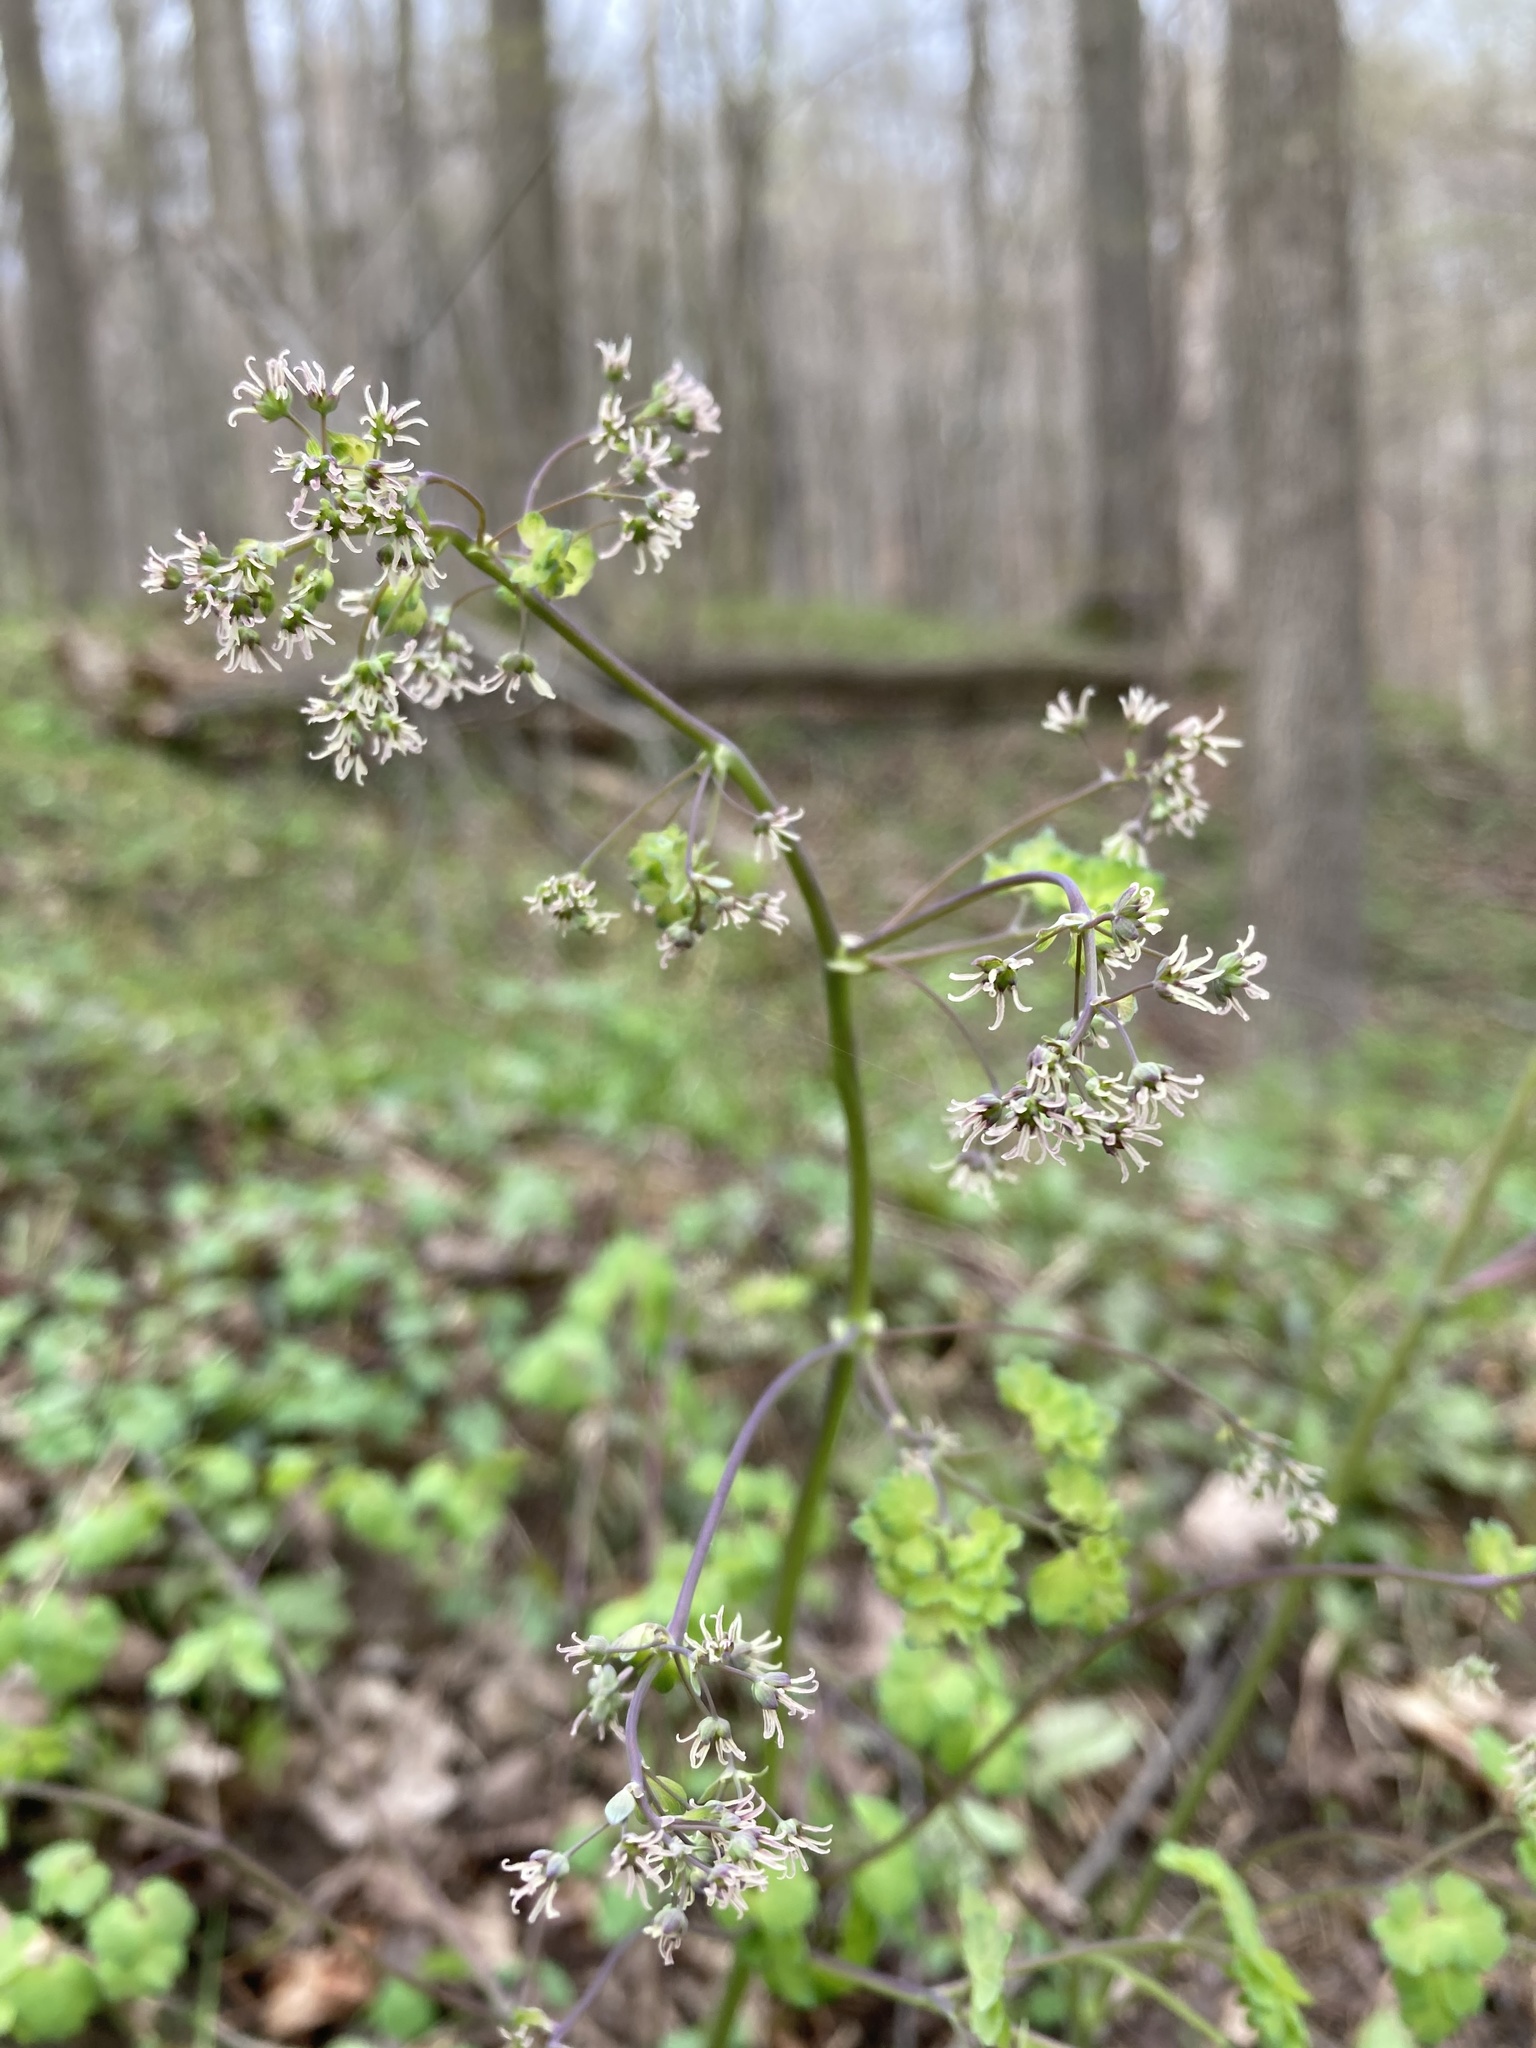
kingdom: Plantae
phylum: Tracheophyta
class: Magnoliopsida
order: Ranunculales
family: Ranunculaceae
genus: Thalictrum
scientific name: Thalictrum dioicum
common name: Early meadow-rue
